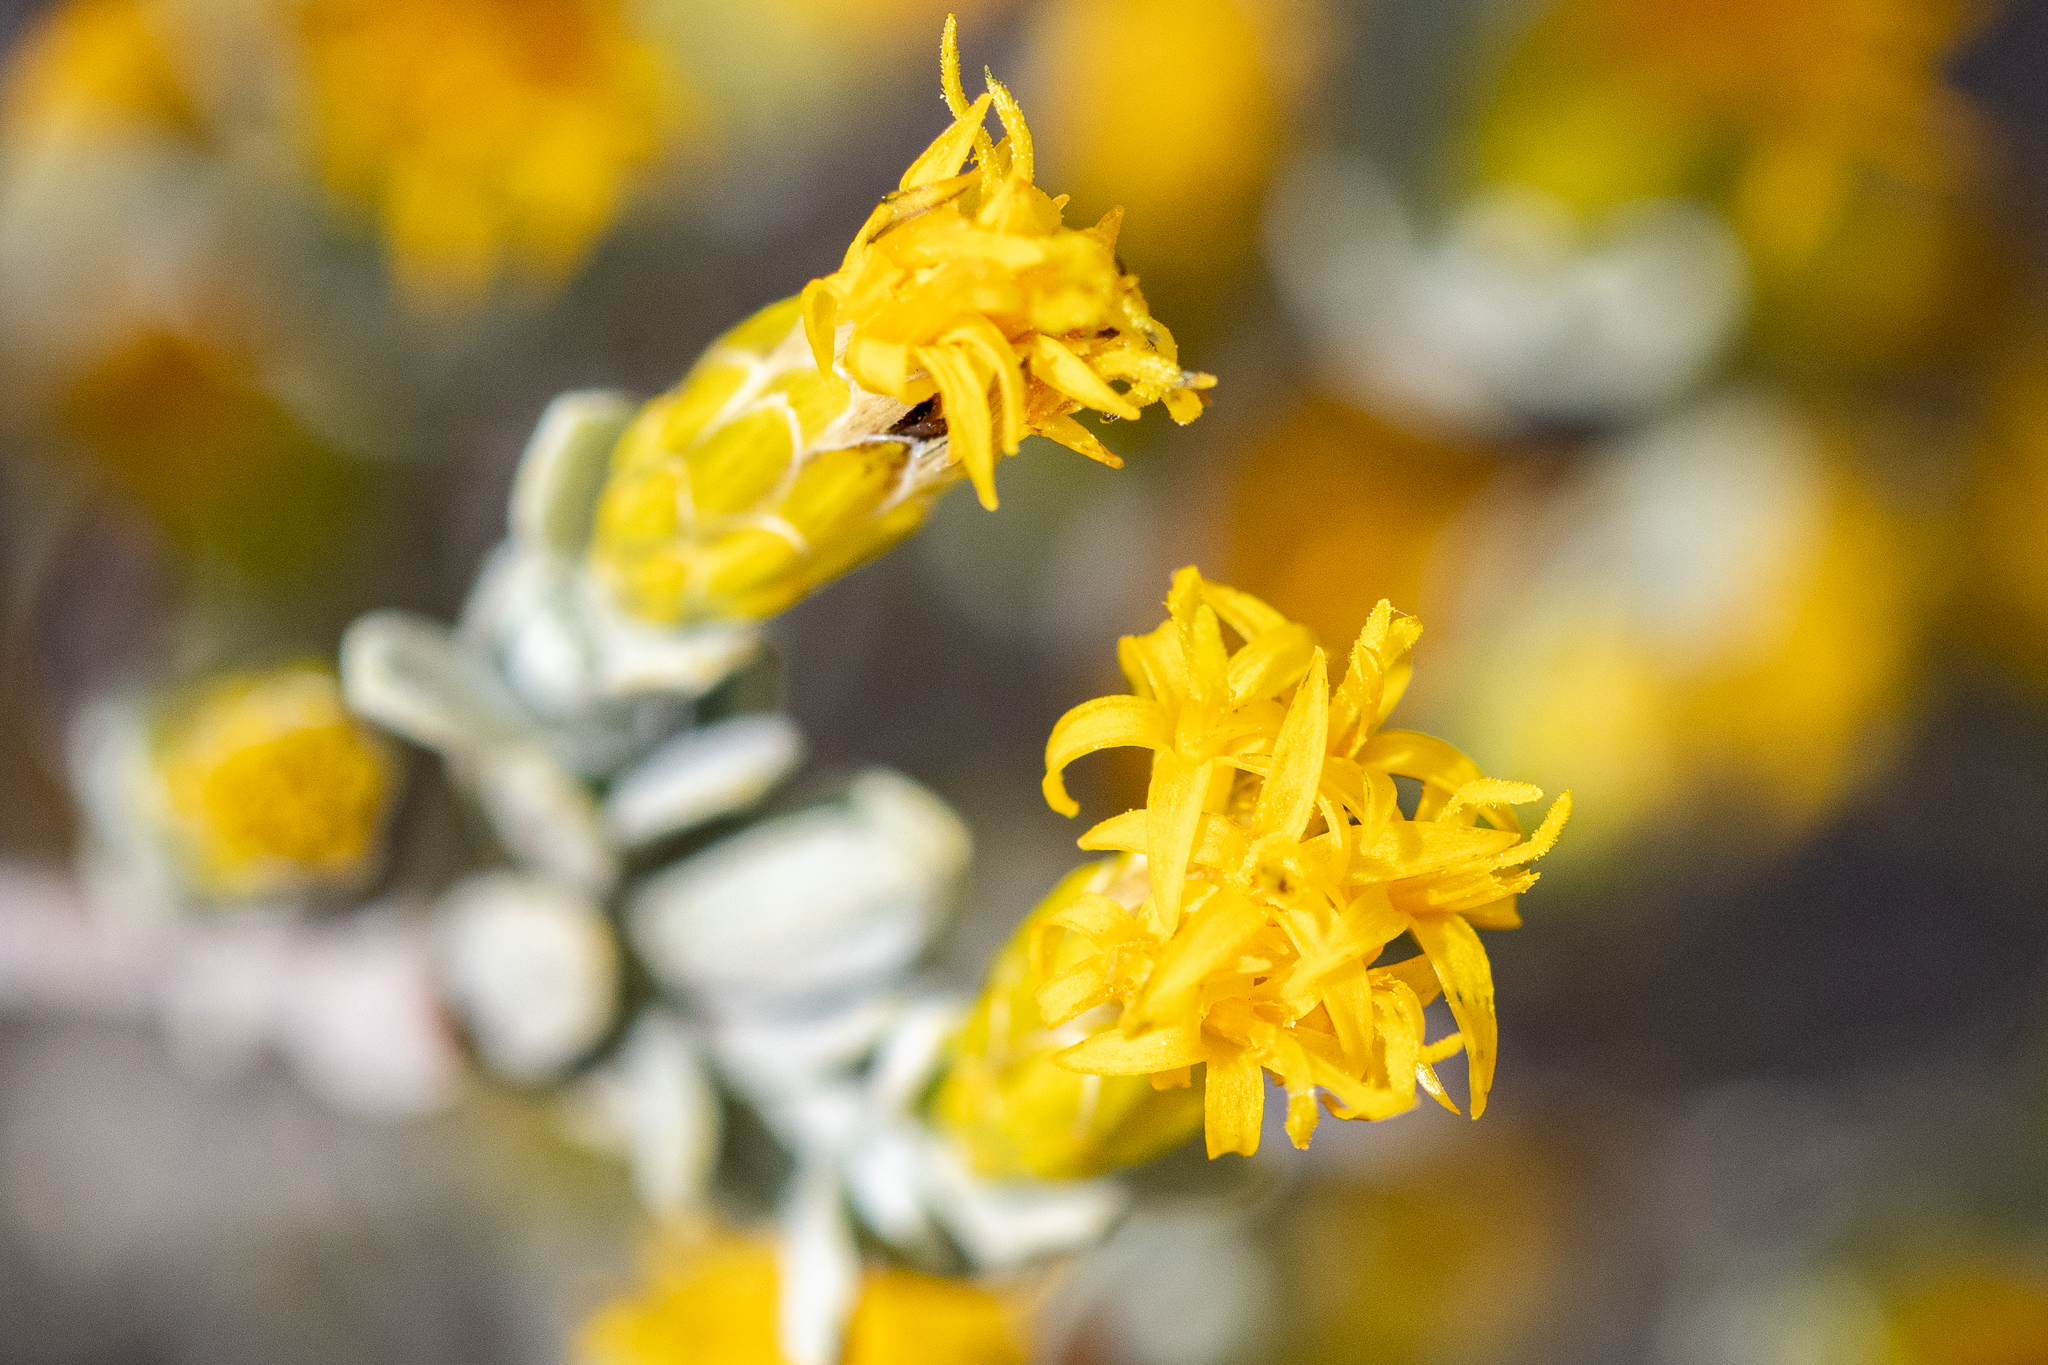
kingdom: Plantae
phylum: Tracheophyta
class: Magnoliopsida
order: Asterales
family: Asteraceae
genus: Pteronia
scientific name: Pteronia incana
